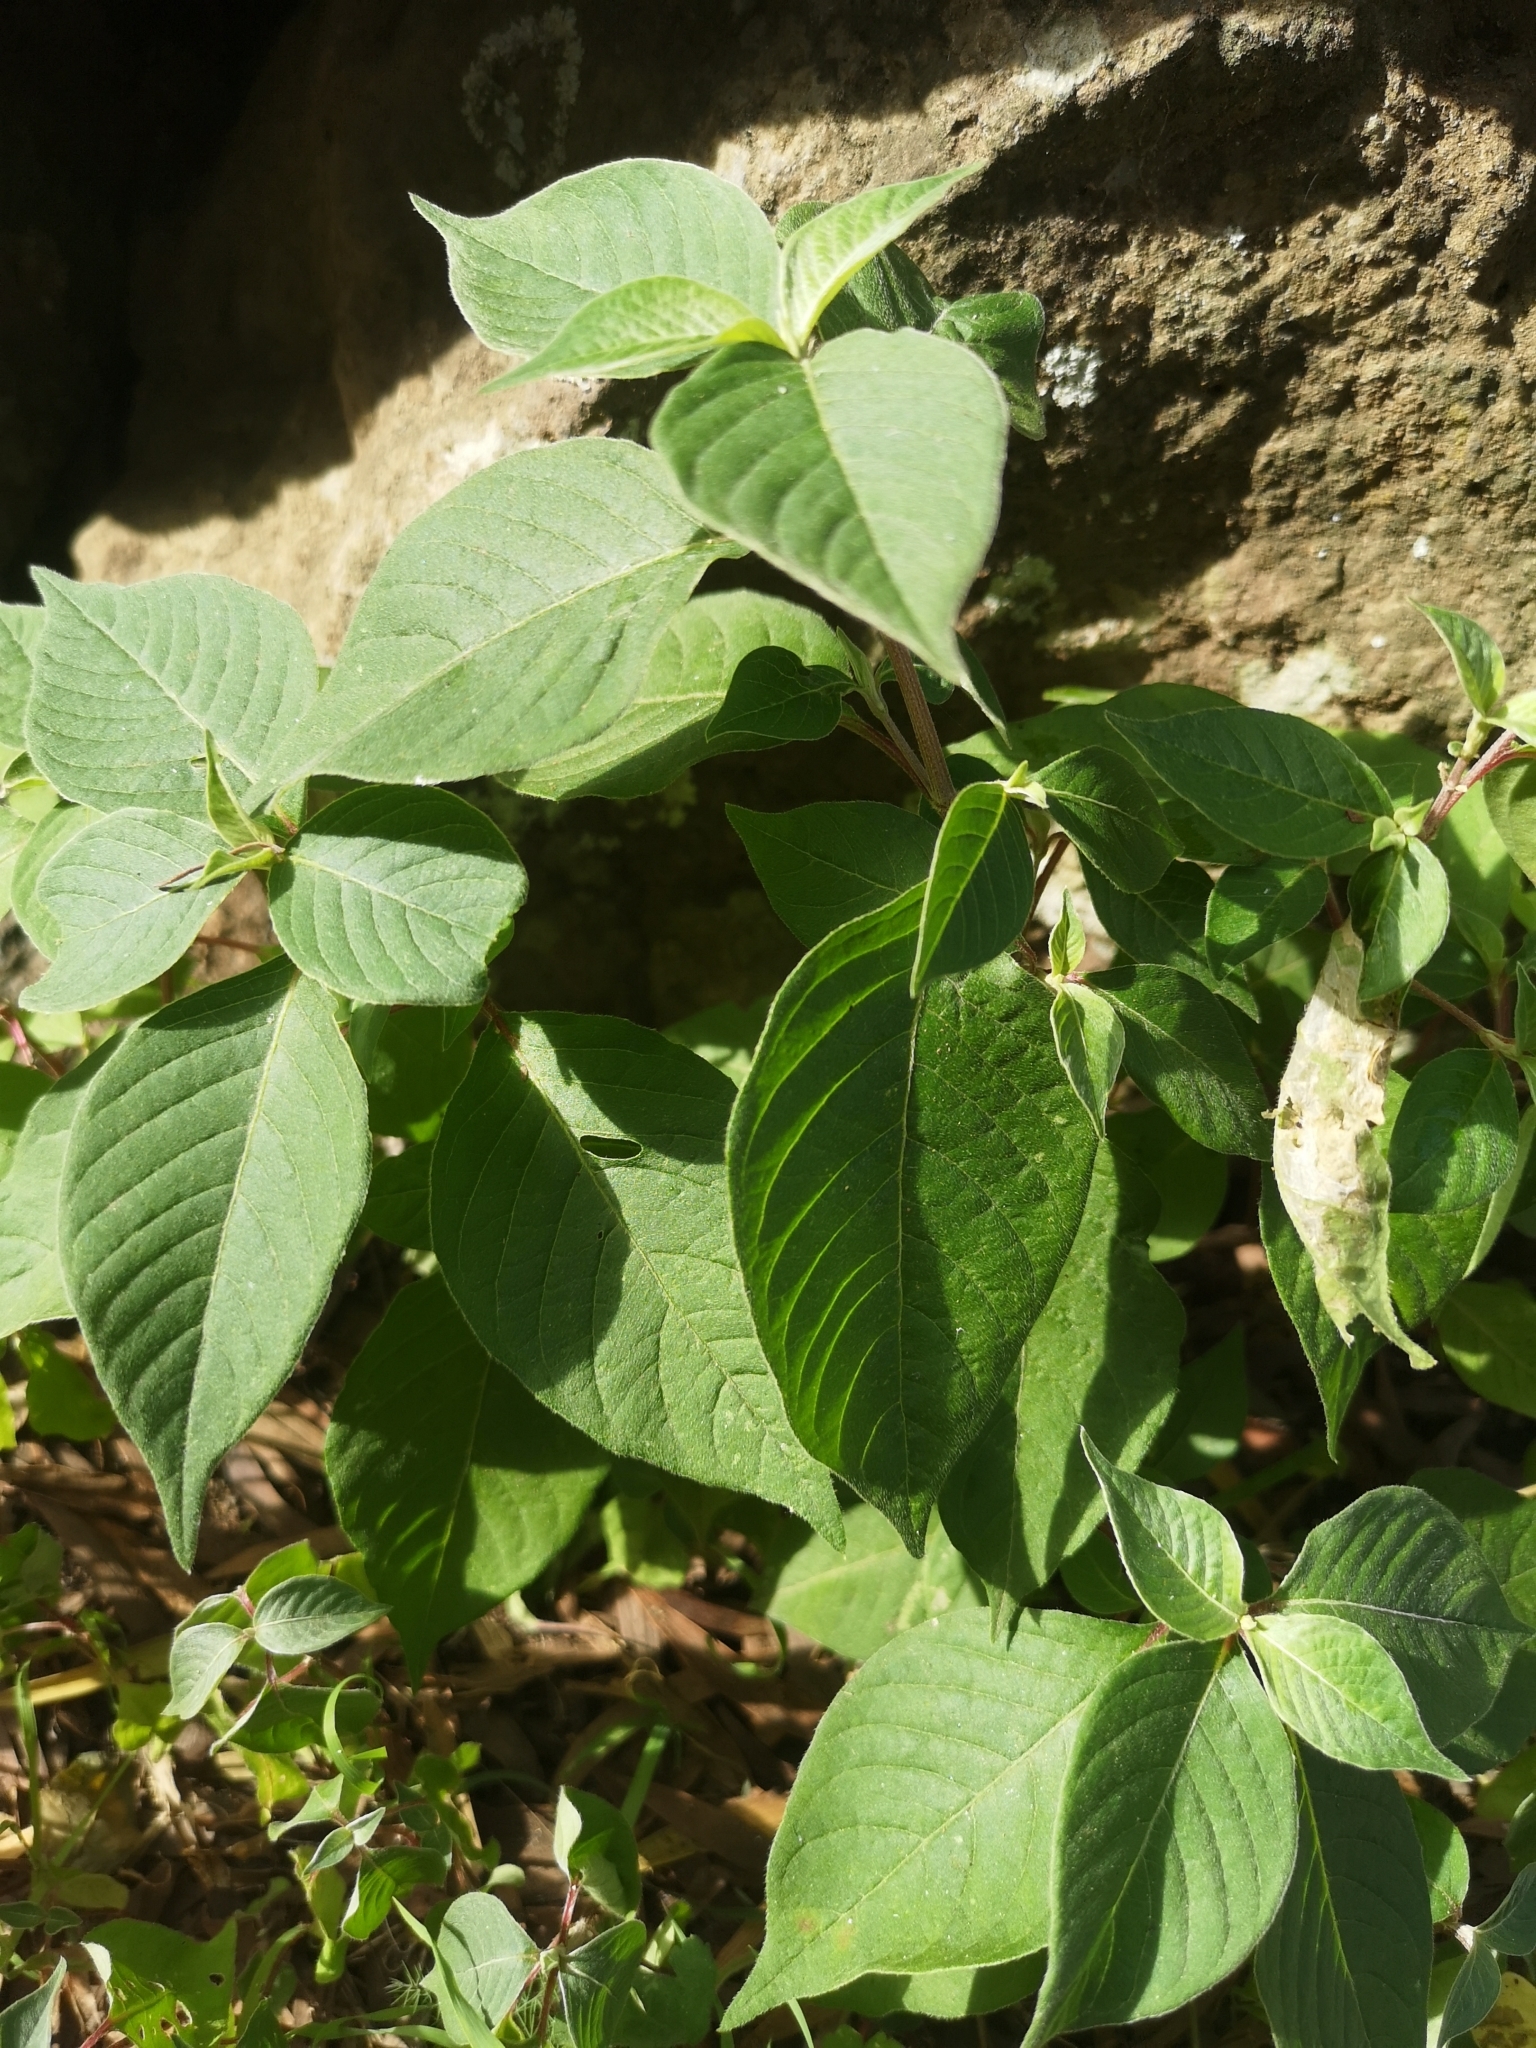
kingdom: Plantae
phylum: Tracheophyta
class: Magnoliopsida
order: Caryophyllales
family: Amaranthaceae
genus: Achyranthes
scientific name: Achyranthes aspera
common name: Devil's horsewhip
